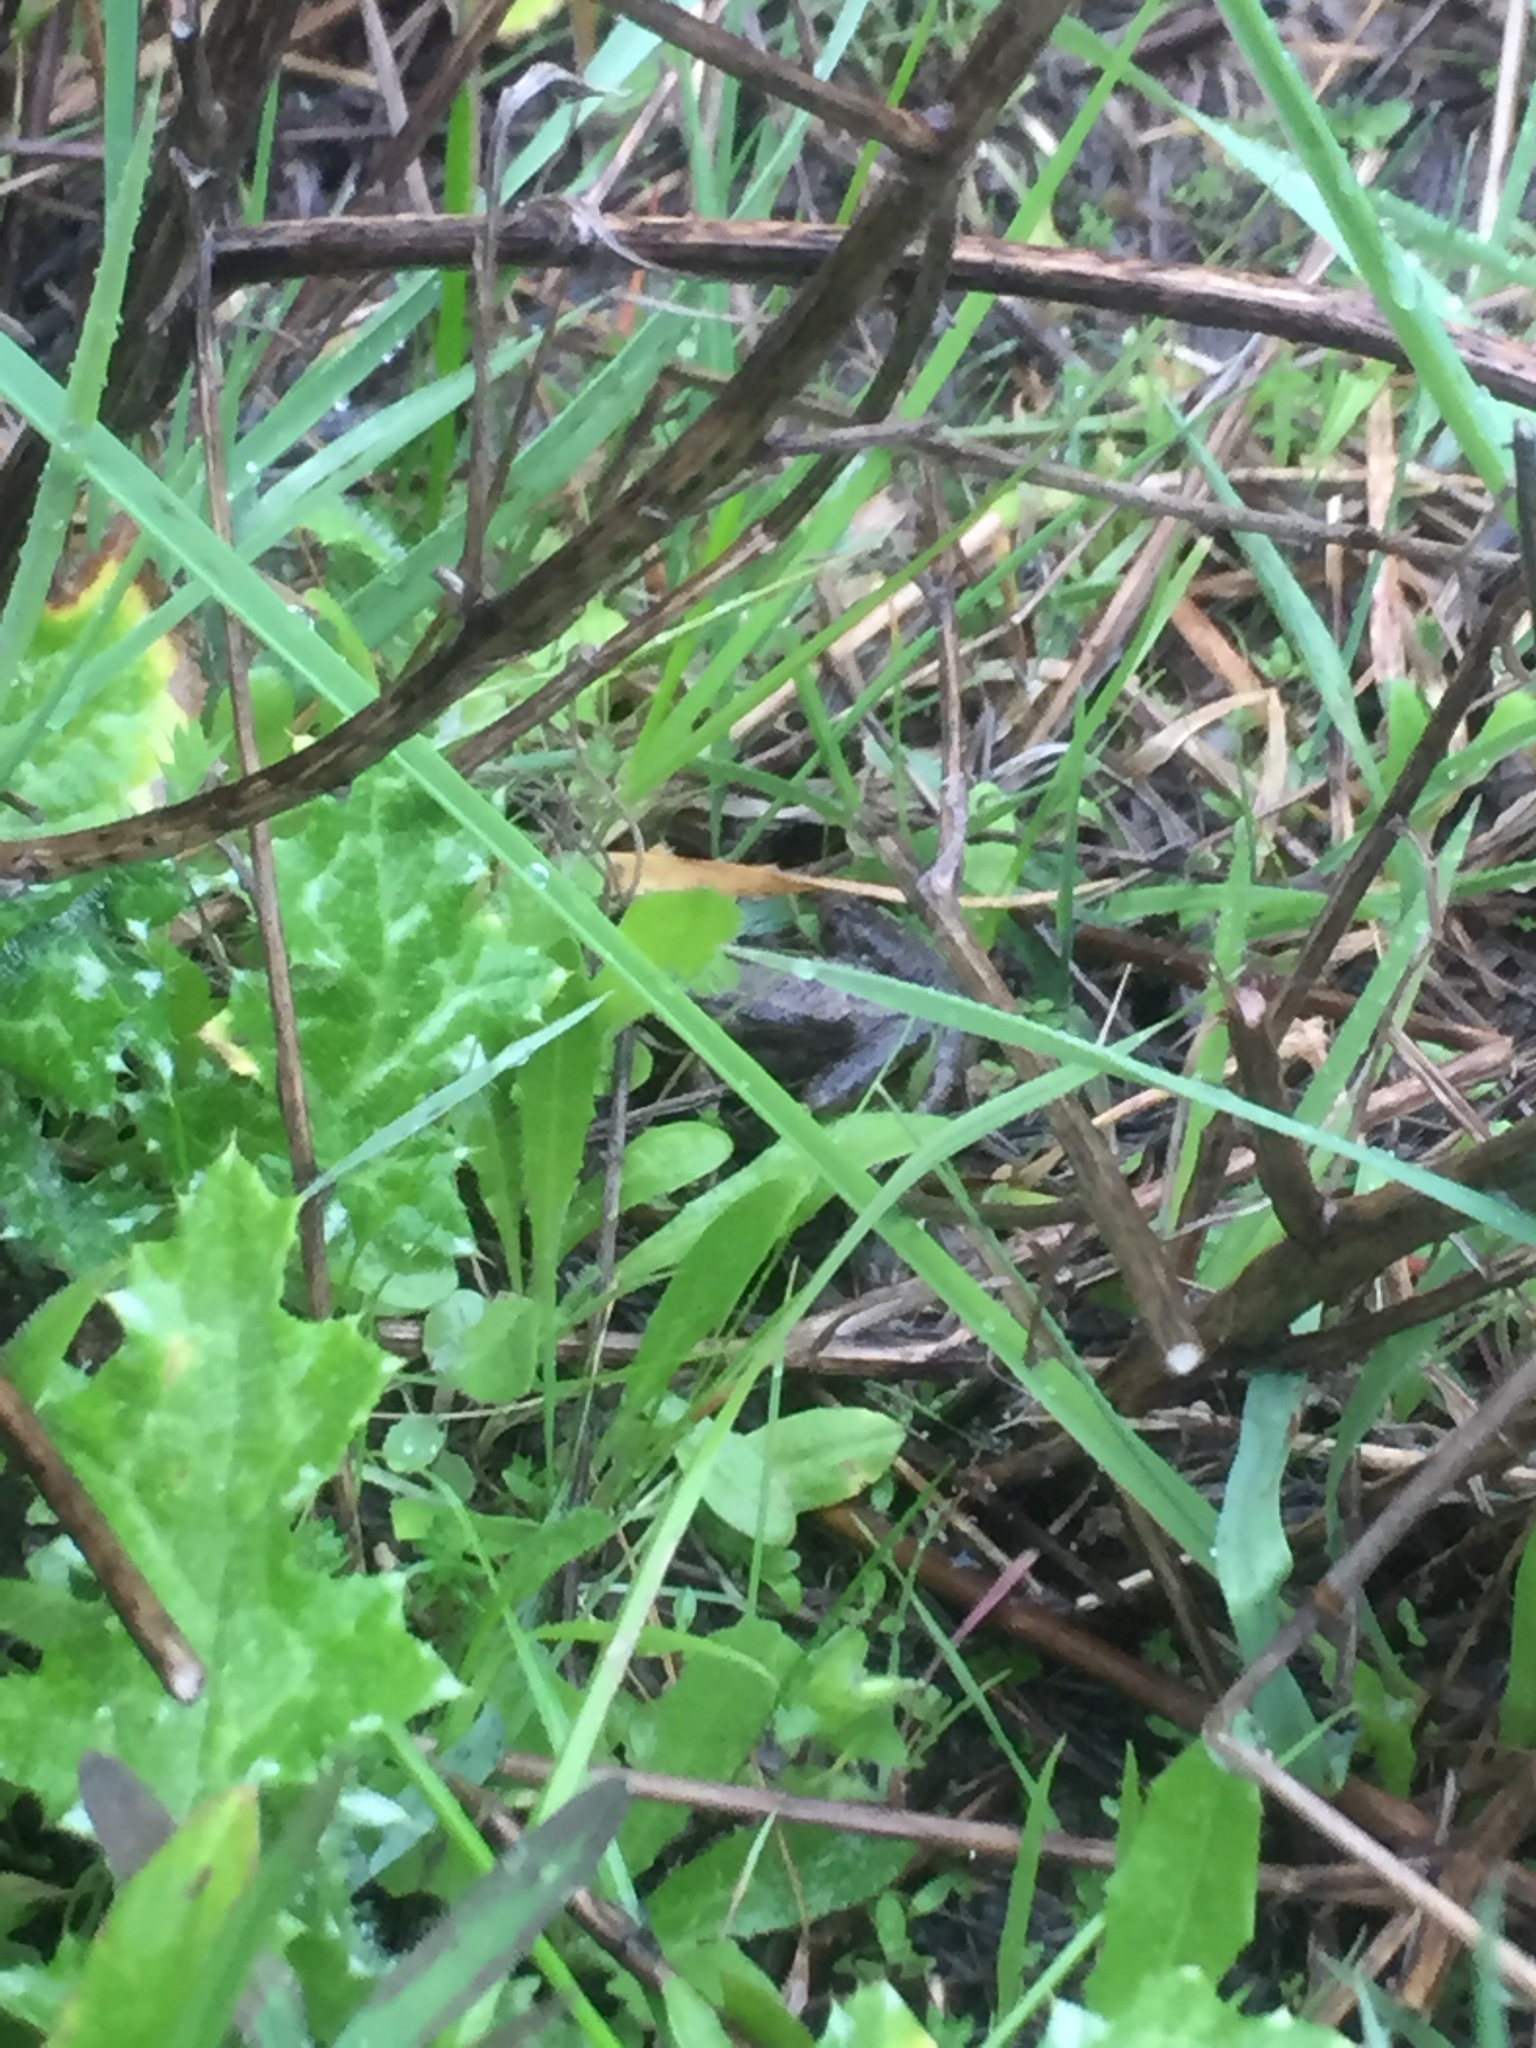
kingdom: Animalia
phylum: Chordata
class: Amphibia
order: Anura
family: Hylidae
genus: Pseudacris
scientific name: Pseudacris regilla
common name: Pacific chorus frog
